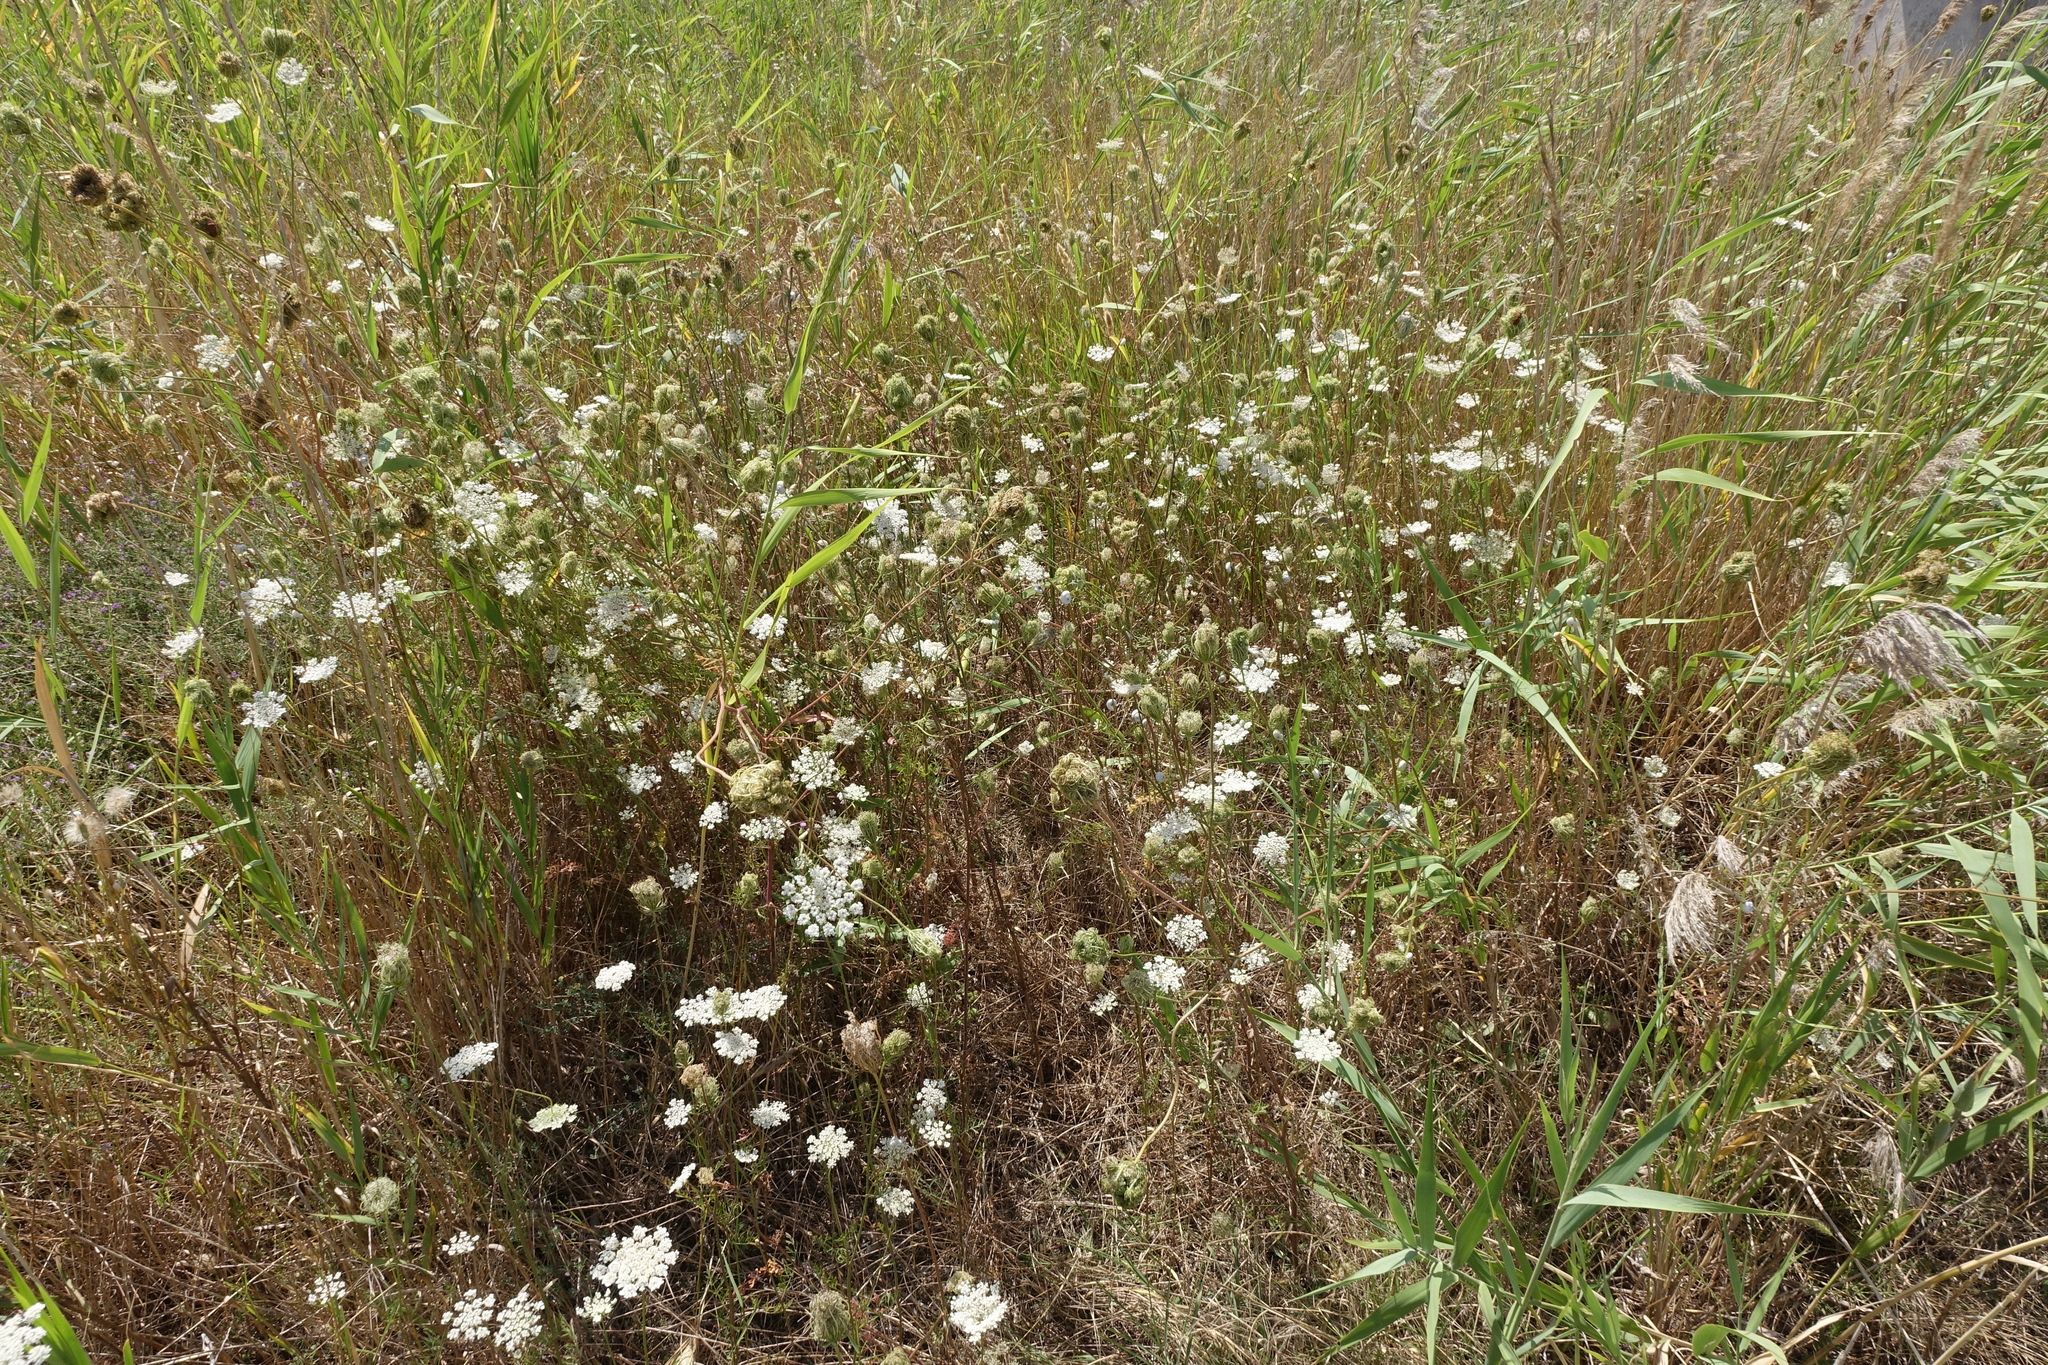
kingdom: Plantae
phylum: Tracheophyta
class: Magnoliopsida
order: Apiales
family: Apiaceae
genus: Daucus
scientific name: Daucus carota
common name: Wild carrot
